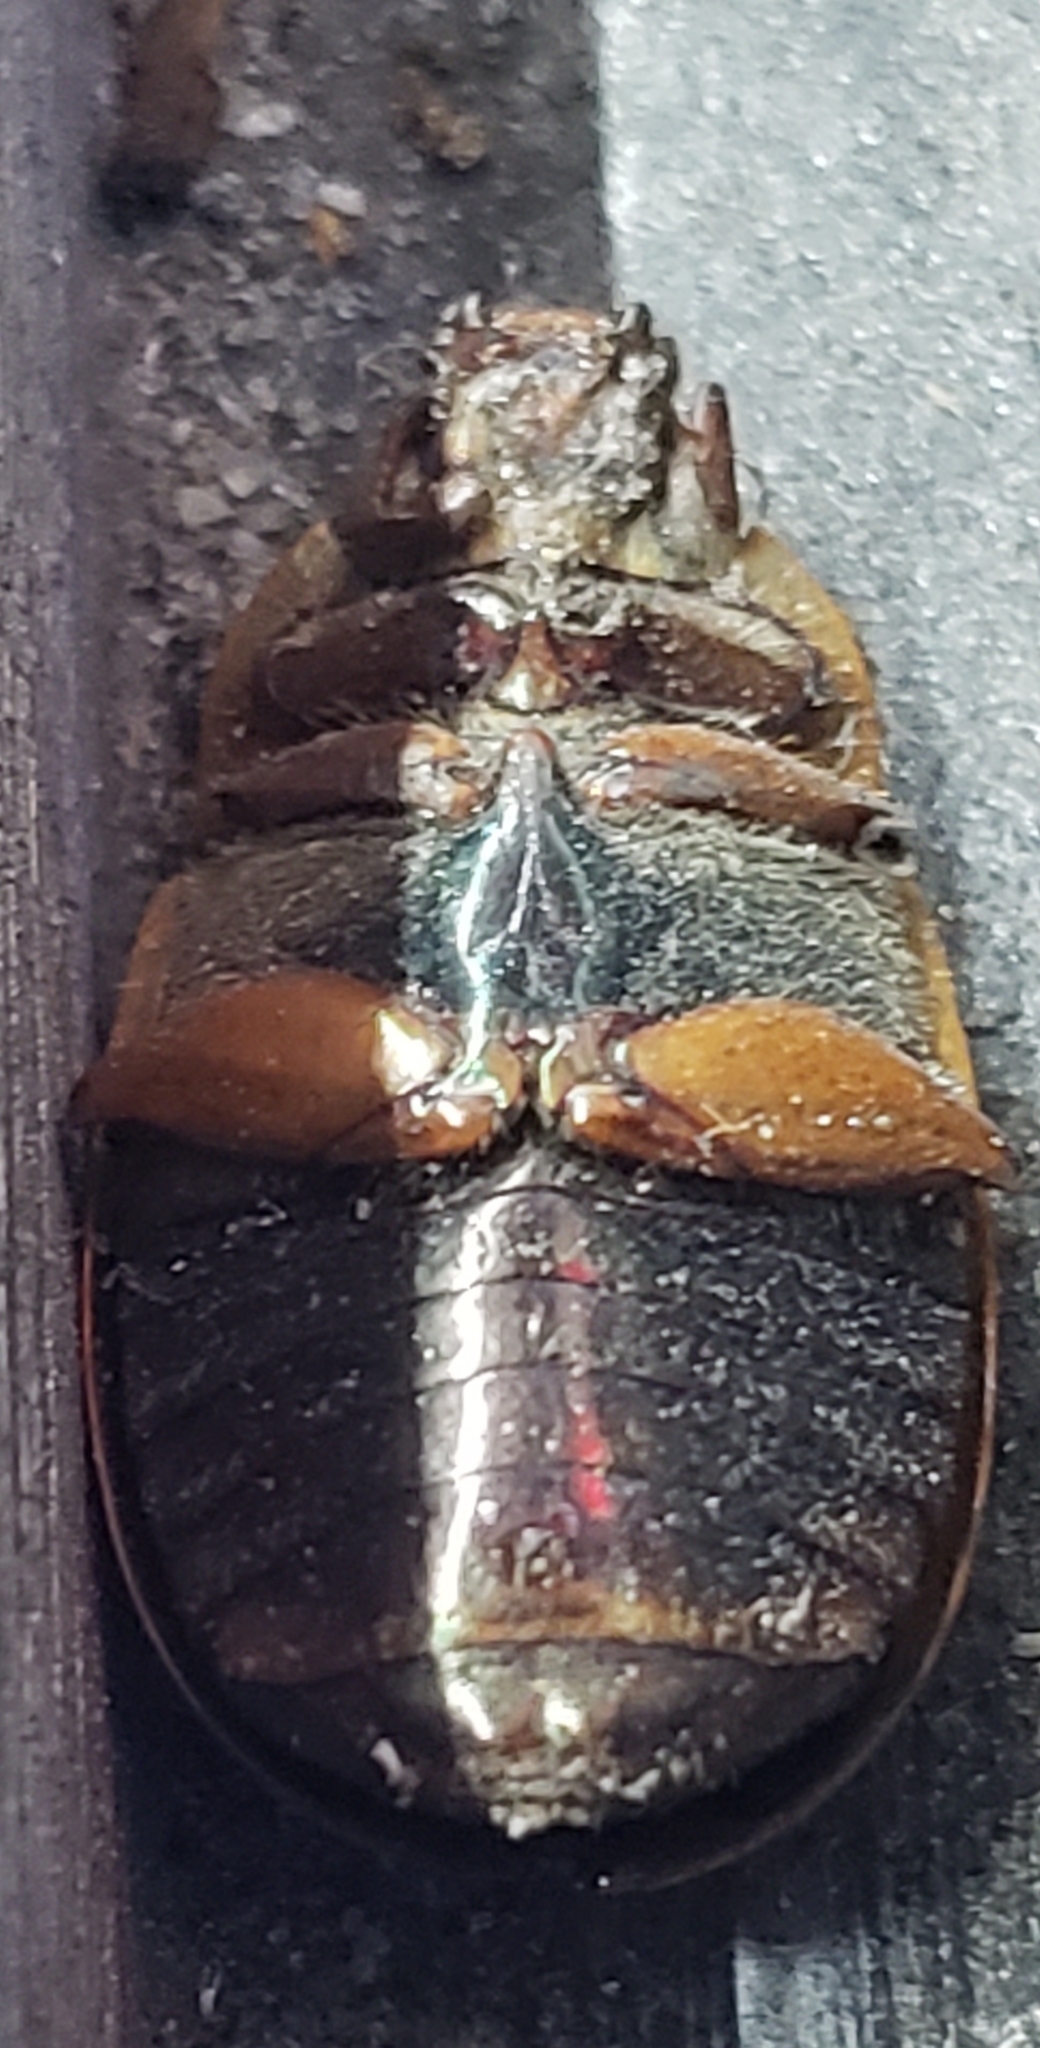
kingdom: Animalia
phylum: Arthropoda
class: Insecta
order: Coleoptera
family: Scarabaeidae
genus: Pelidnota
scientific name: Pelidnota punctata
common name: Grapevine beetle
